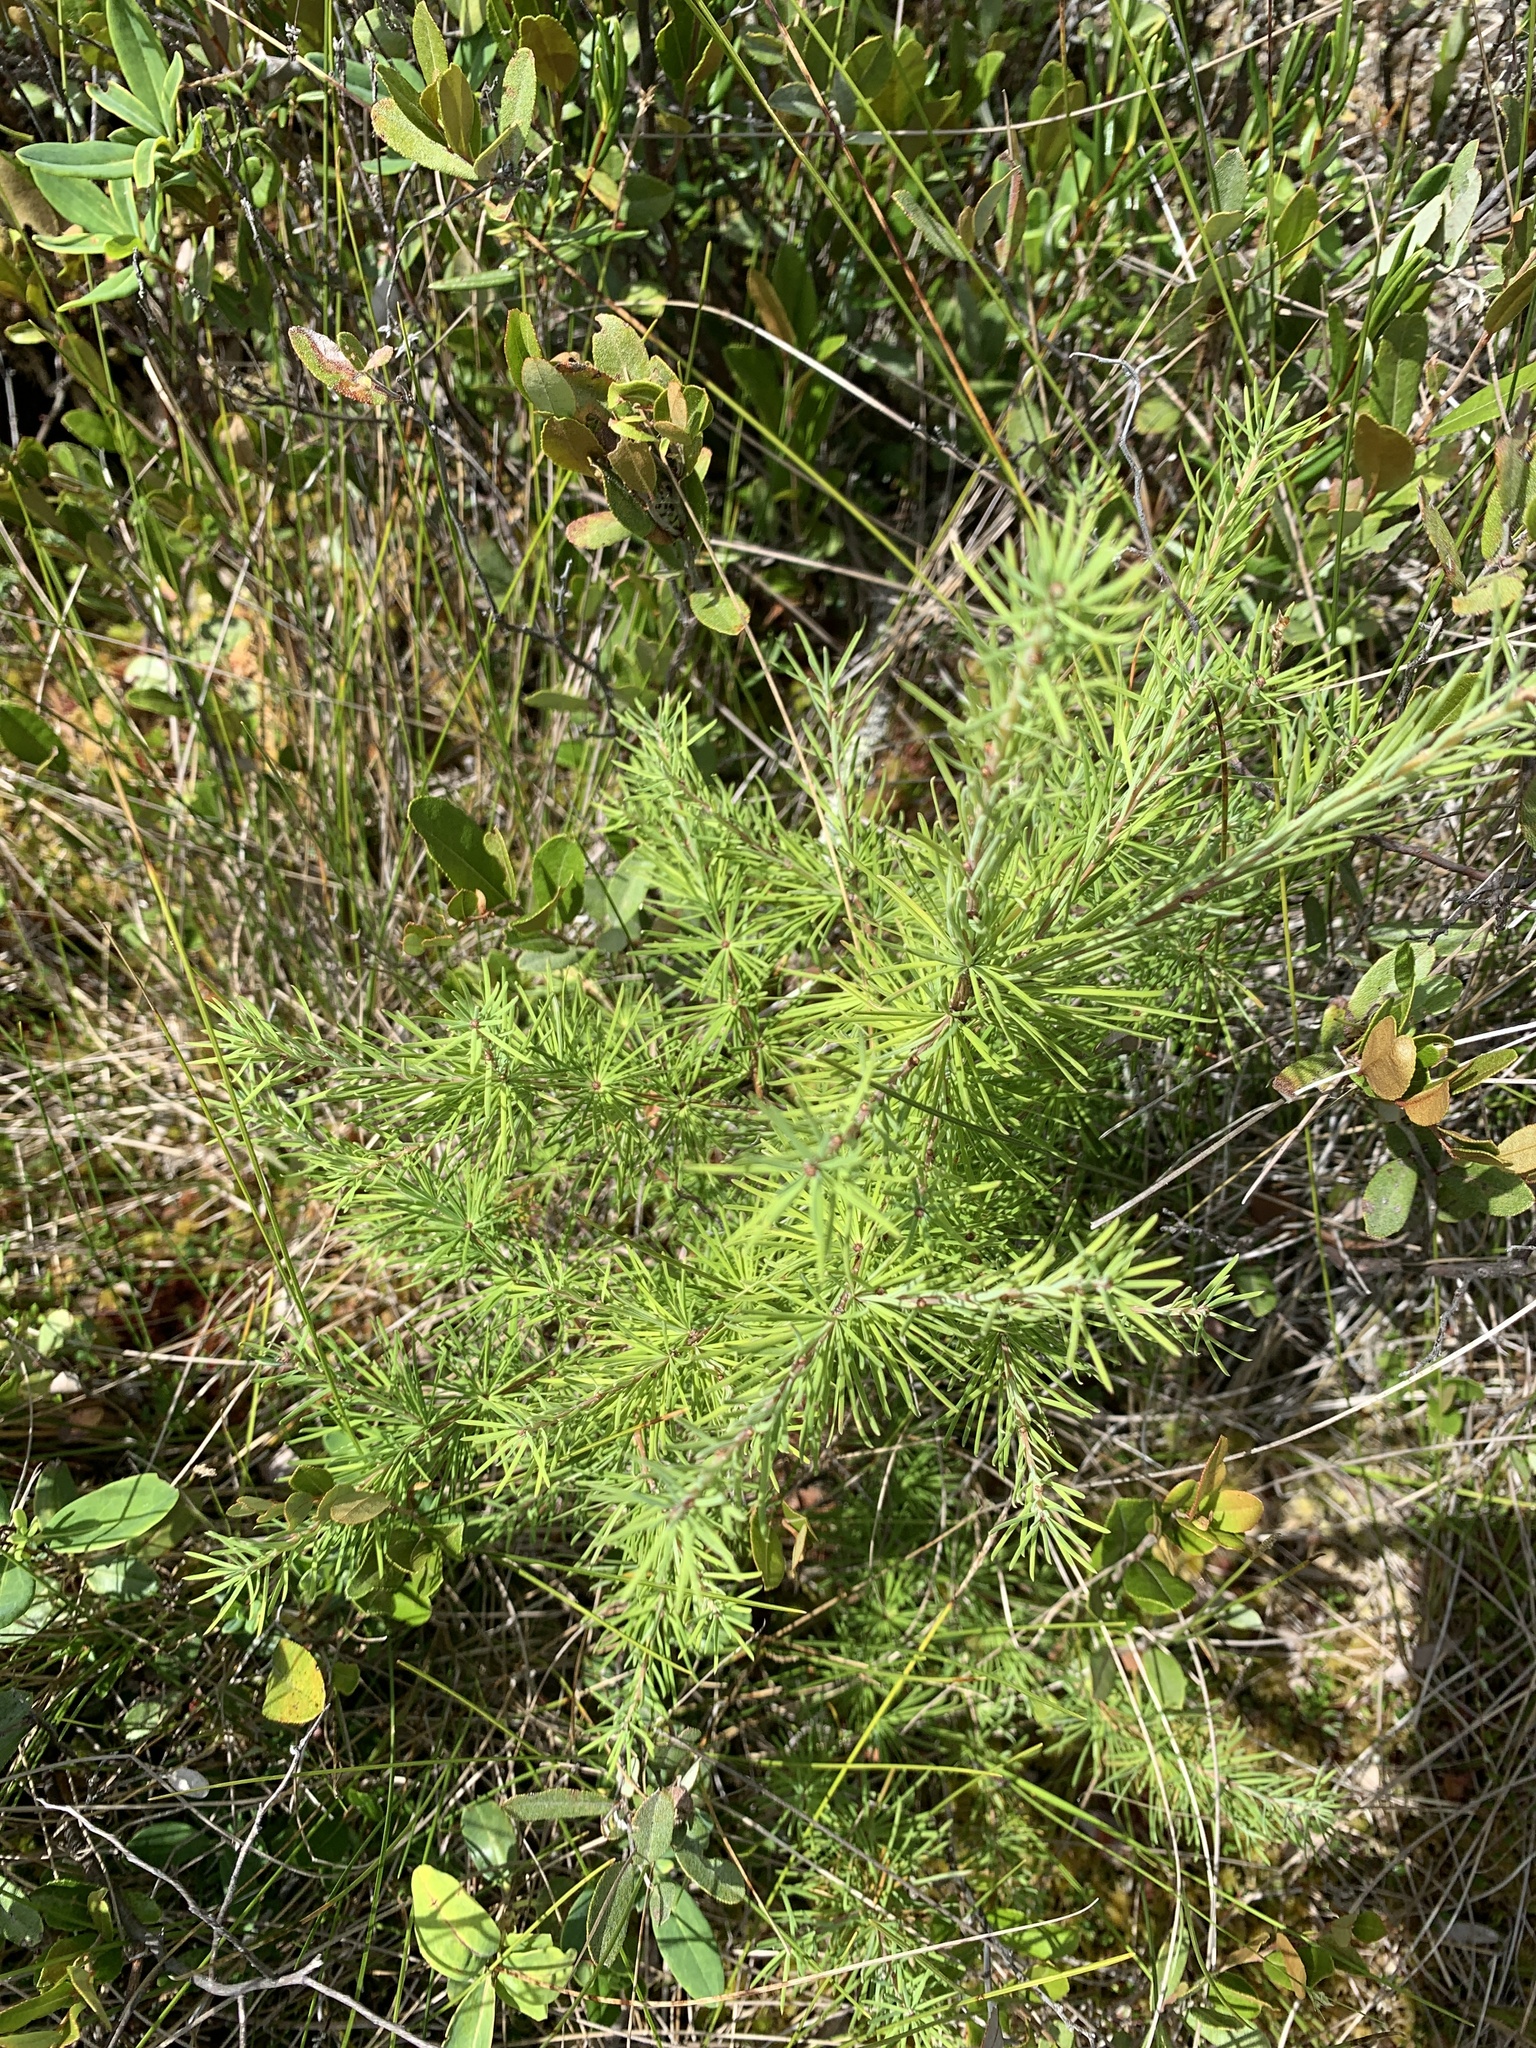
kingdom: Plantae
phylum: Tracheophyta
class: Pinopsida
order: Pinales
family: Pinaceae
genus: Larix
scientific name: Larix laricina
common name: American larch
